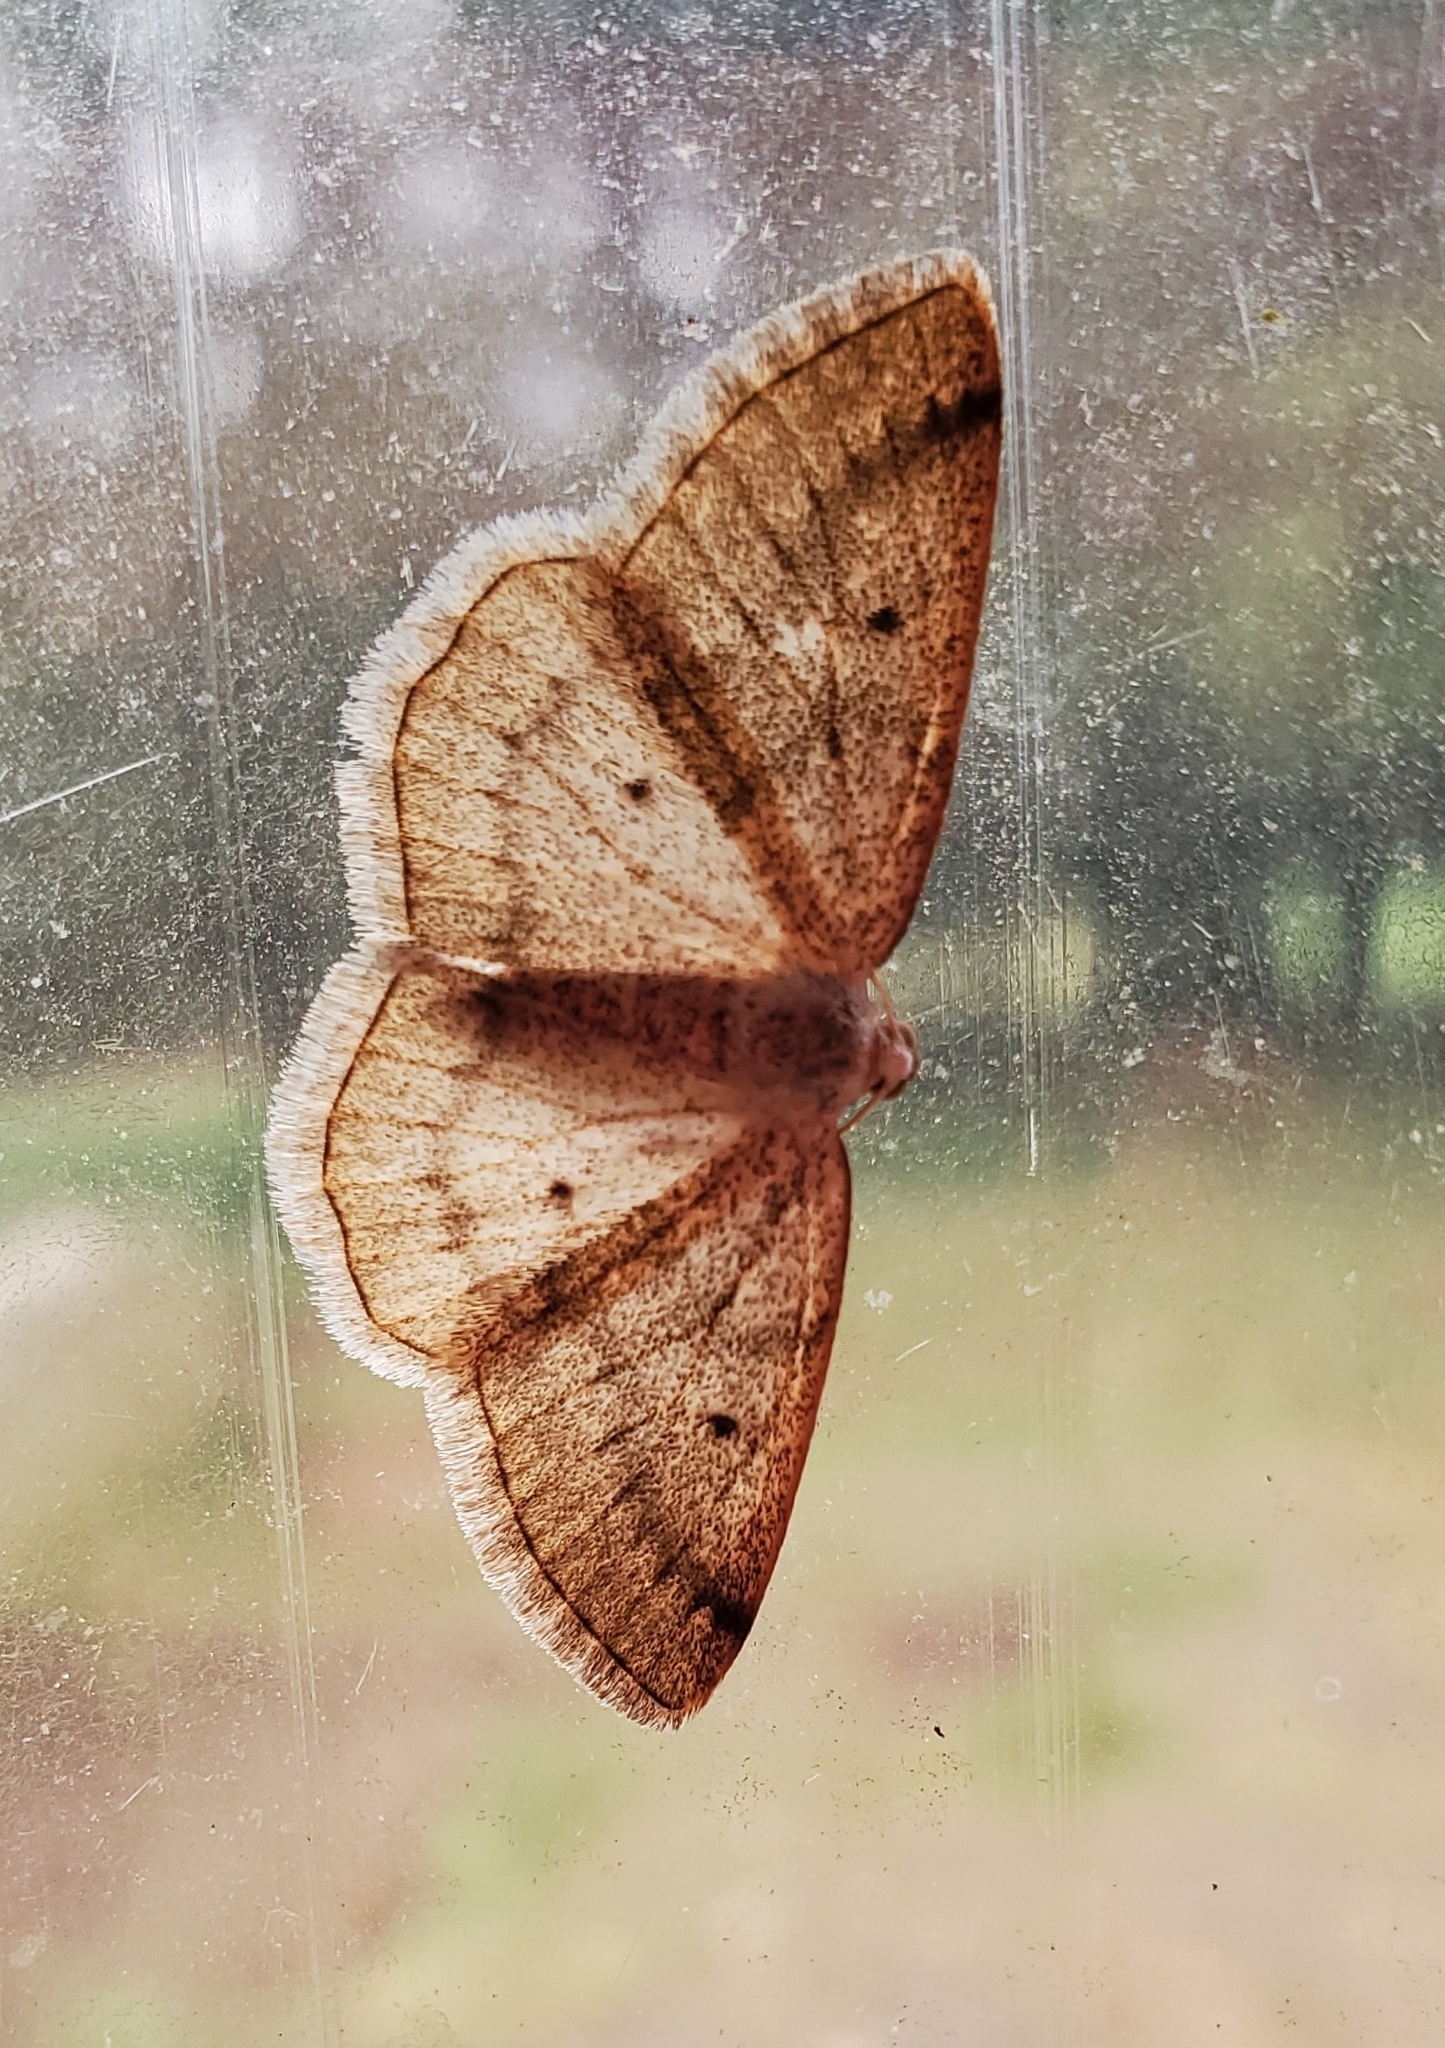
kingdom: Animalia
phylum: Arthropoda
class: Insecta
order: Lepidoptera
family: Geometridae
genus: Lomographa
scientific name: Lomographa glomeraria
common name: Gray spring moth
